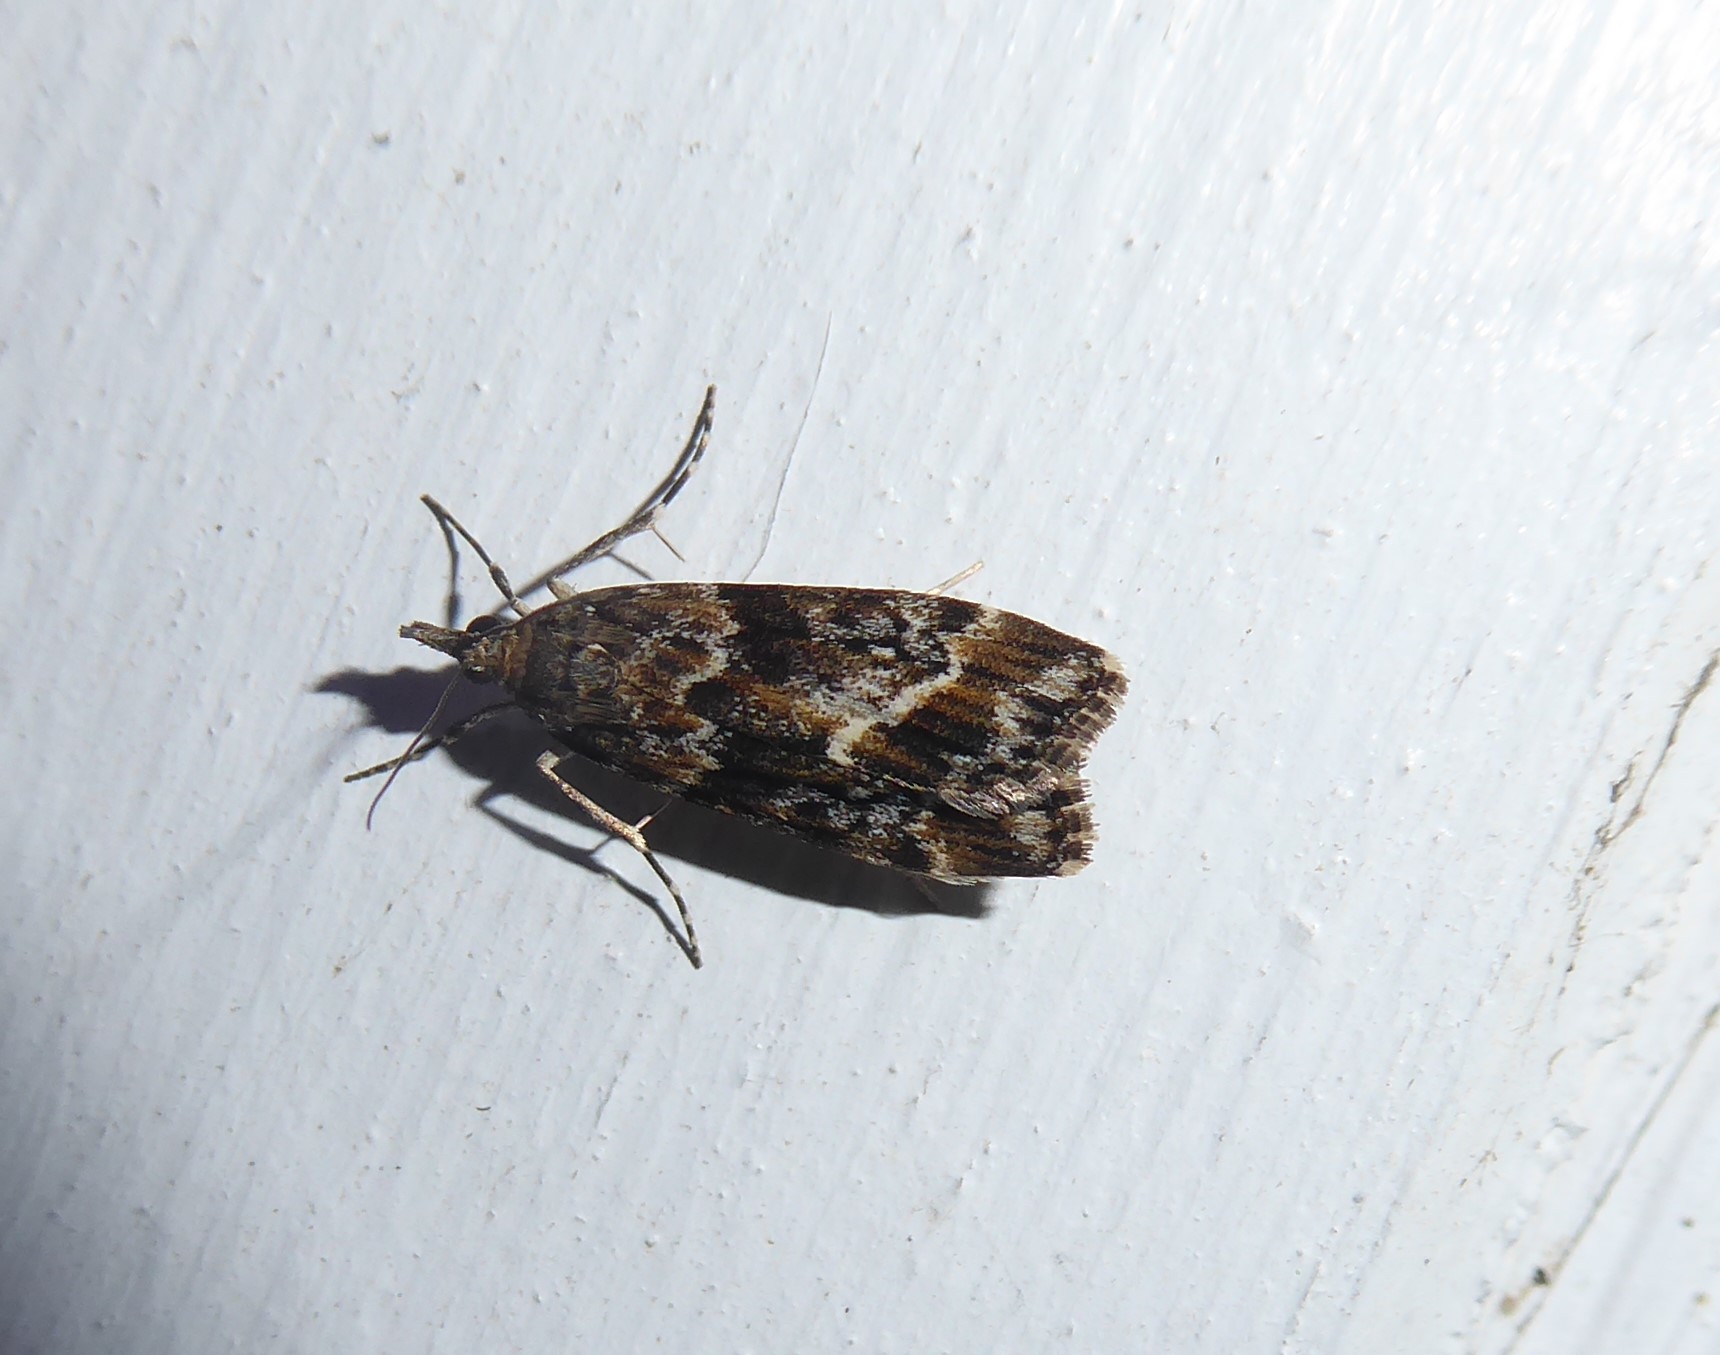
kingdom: Animalia
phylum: Arthropoda
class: Insecta
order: Lepidoptera
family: Crambidae
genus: Eudonia
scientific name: Eudonia legnota
